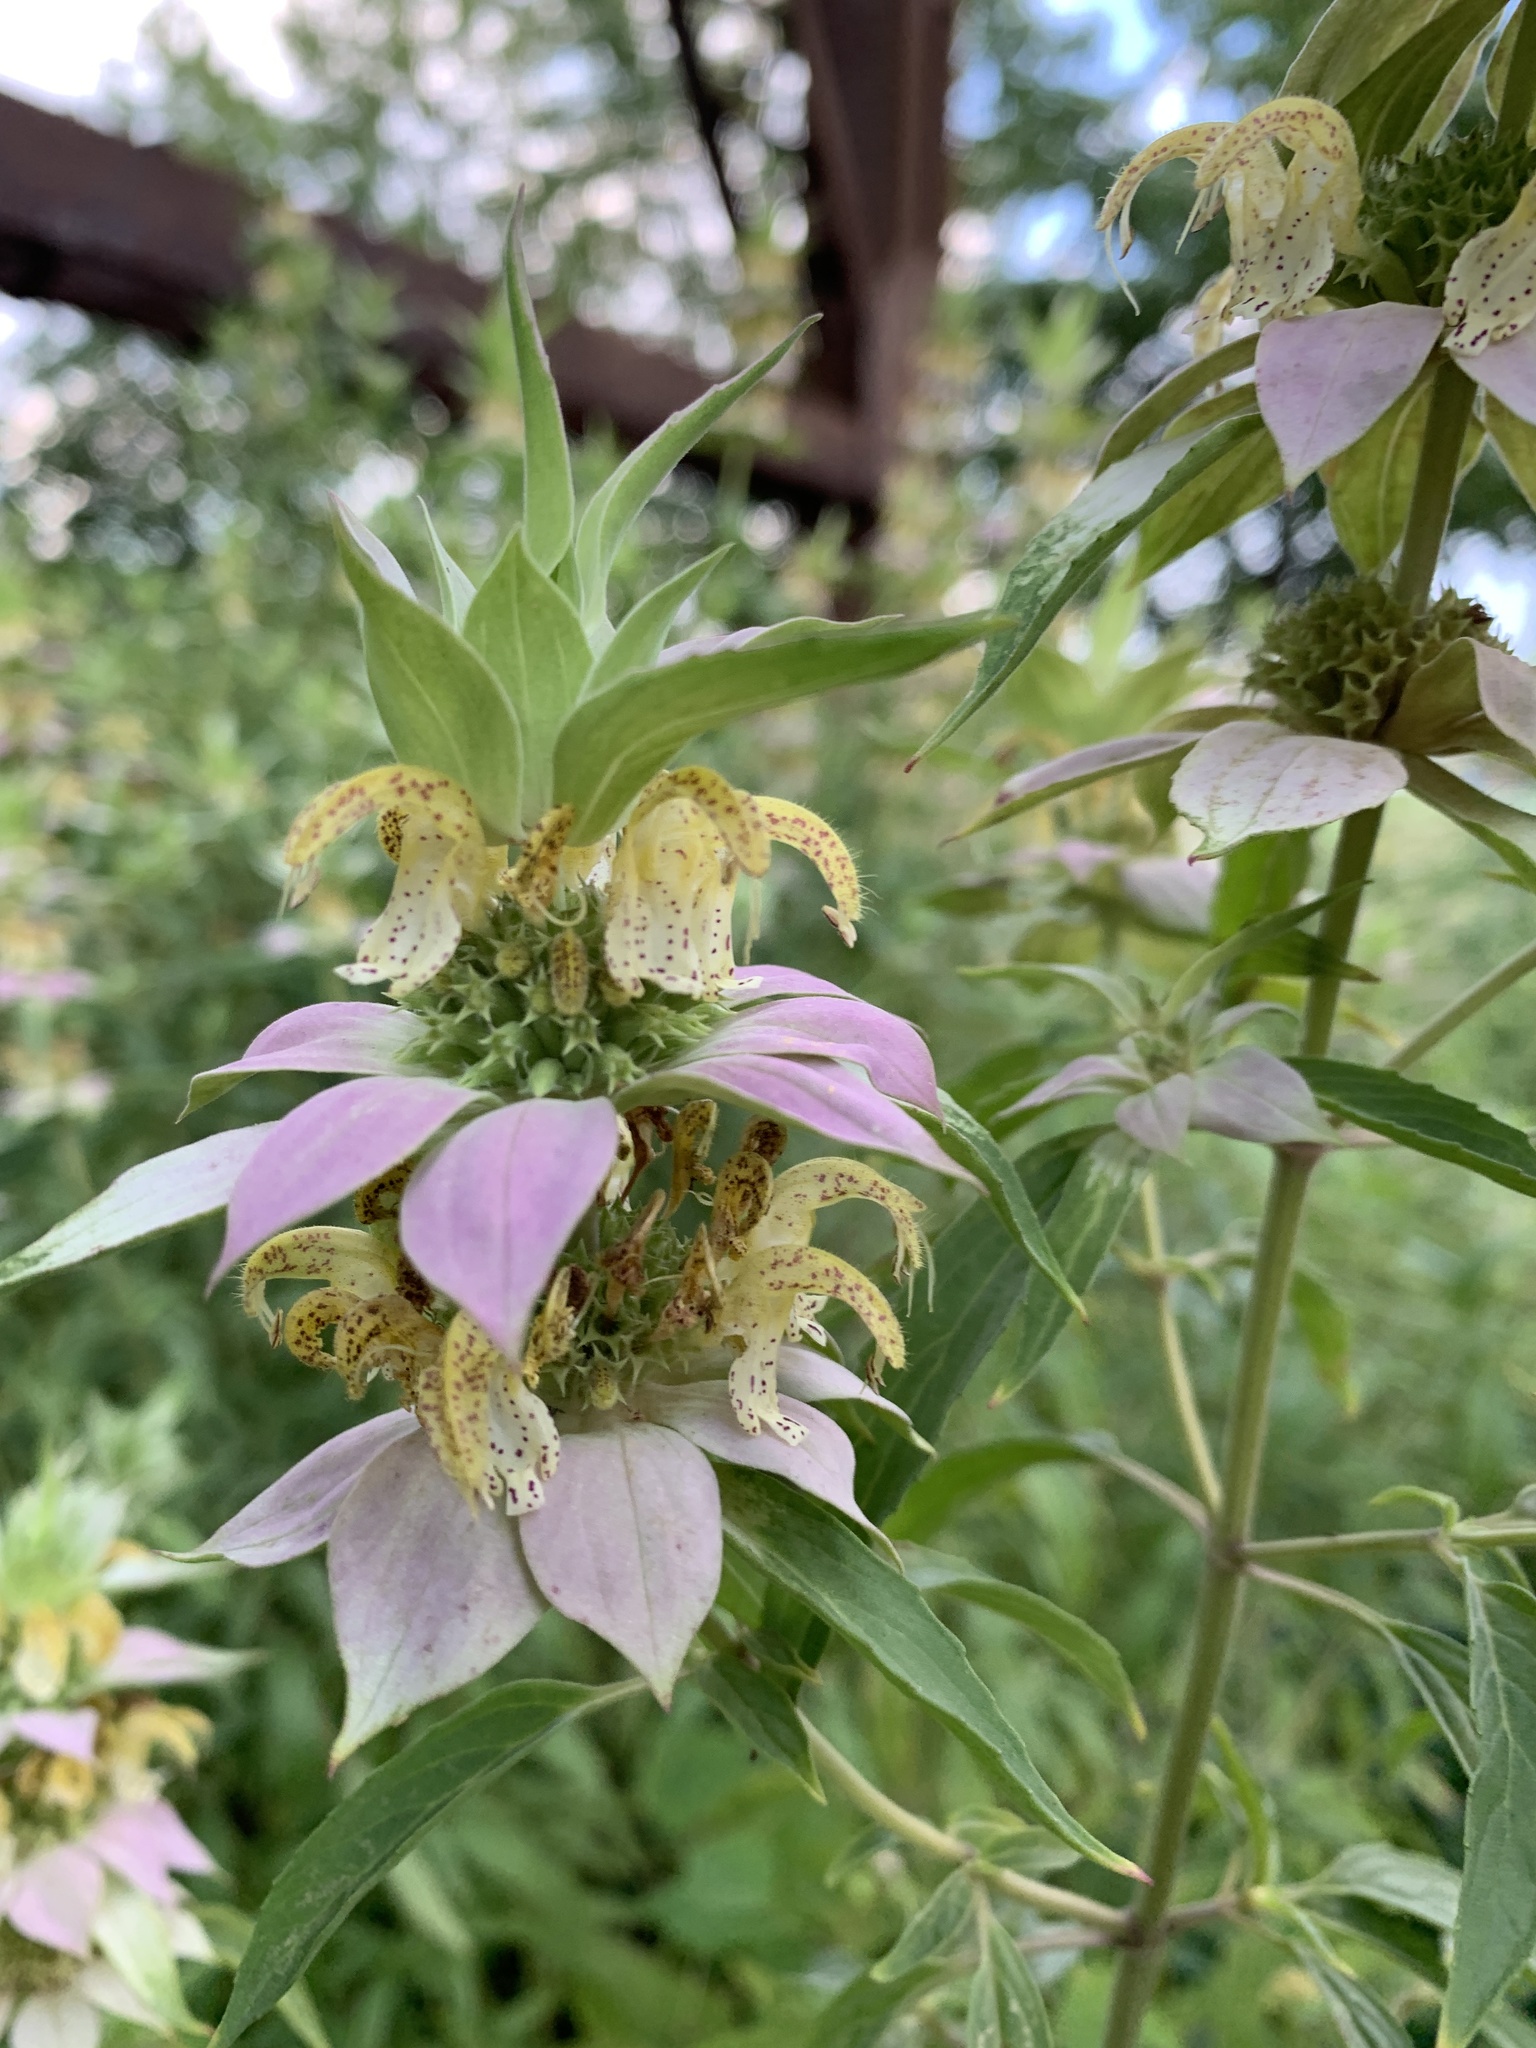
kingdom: Plantae
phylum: Tracheophyta
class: Magnoliopsida
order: Lamiales
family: Lamiaceae
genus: Monarda
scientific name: Monarda punctata
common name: Dotted monarda
